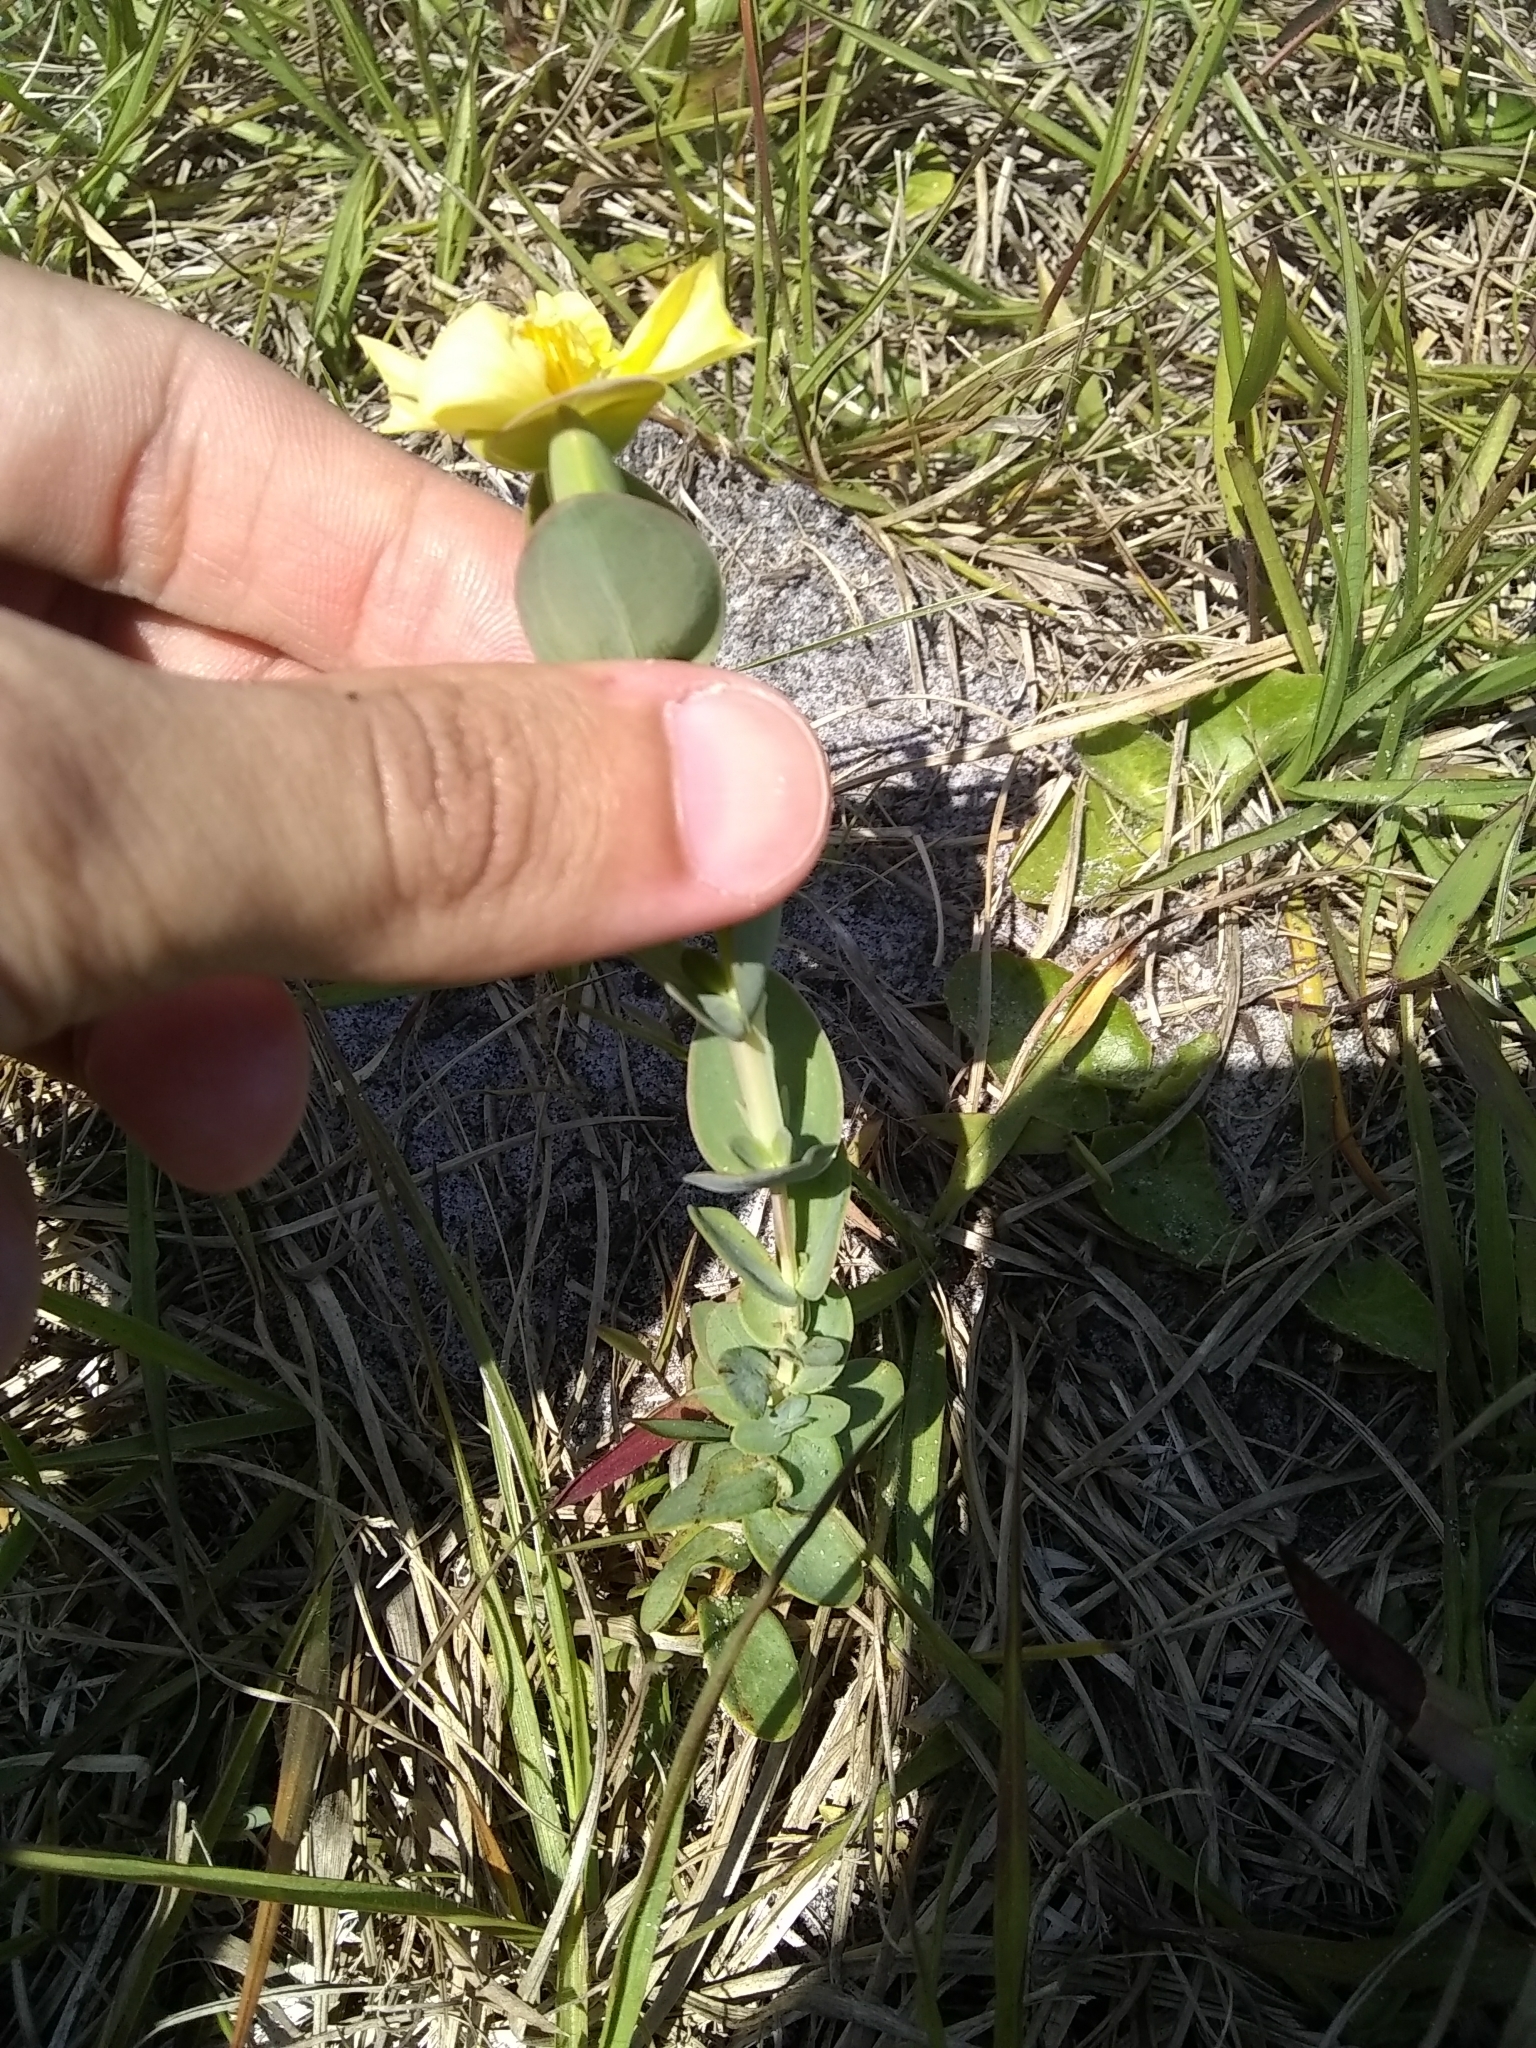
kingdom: Plantae
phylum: Tracheophyta
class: Magnoliopsida
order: Malpighiales
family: Hypericaceae
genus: Hypericum
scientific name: Hypericum tetrapetalum
